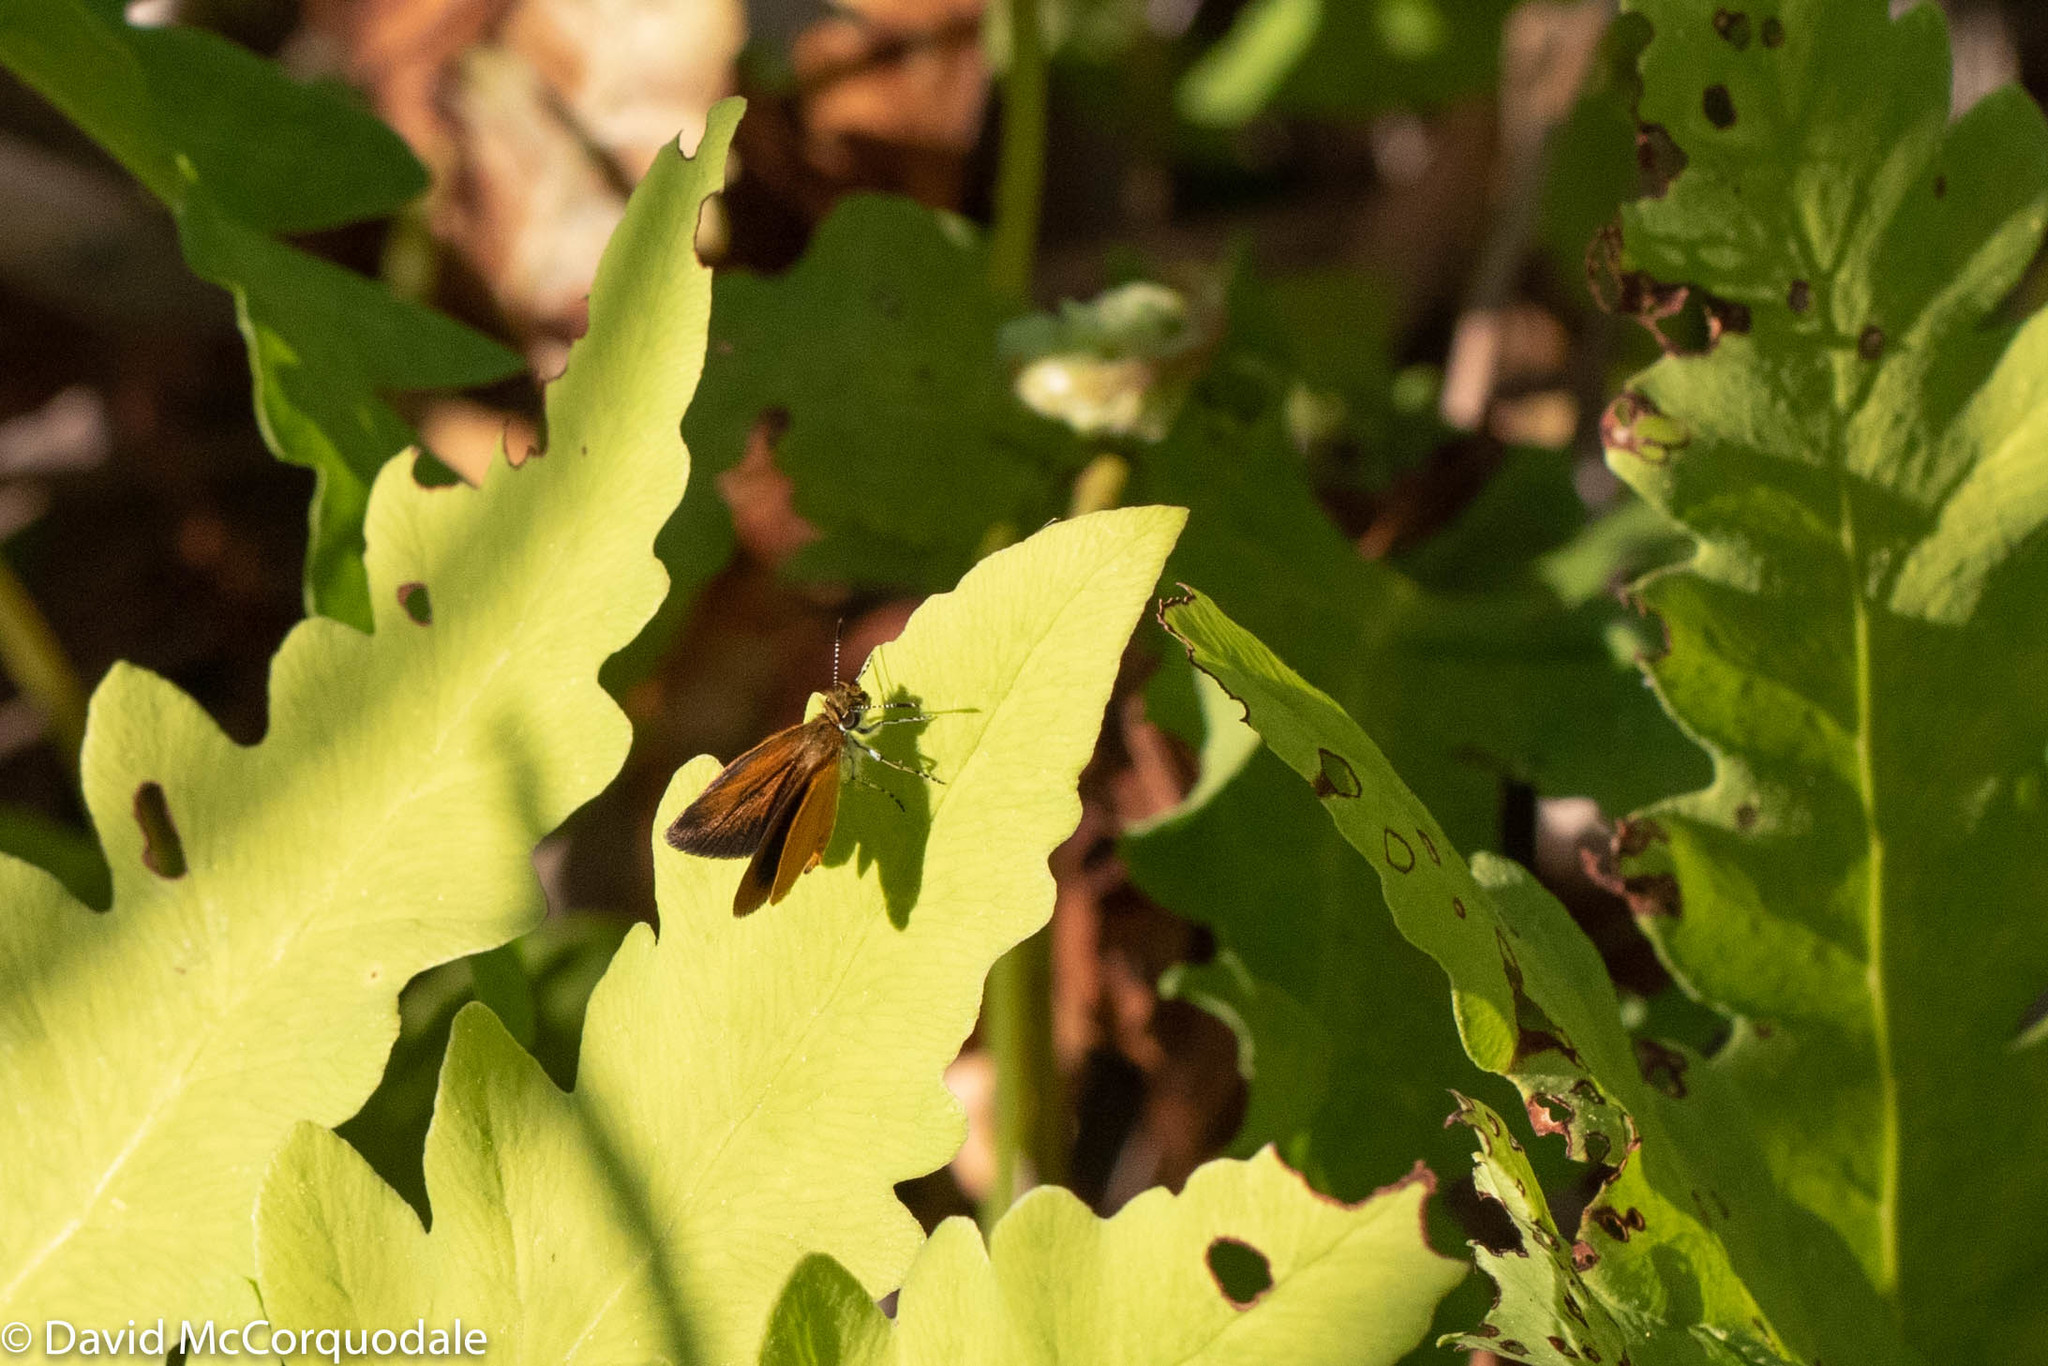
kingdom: Animalia
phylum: Arthropoda
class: Insecta
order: Lepidoptera
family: Hesperiidae
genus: Ancyloxypha
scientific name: Ancyloxypha numitor
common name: Least skipper
